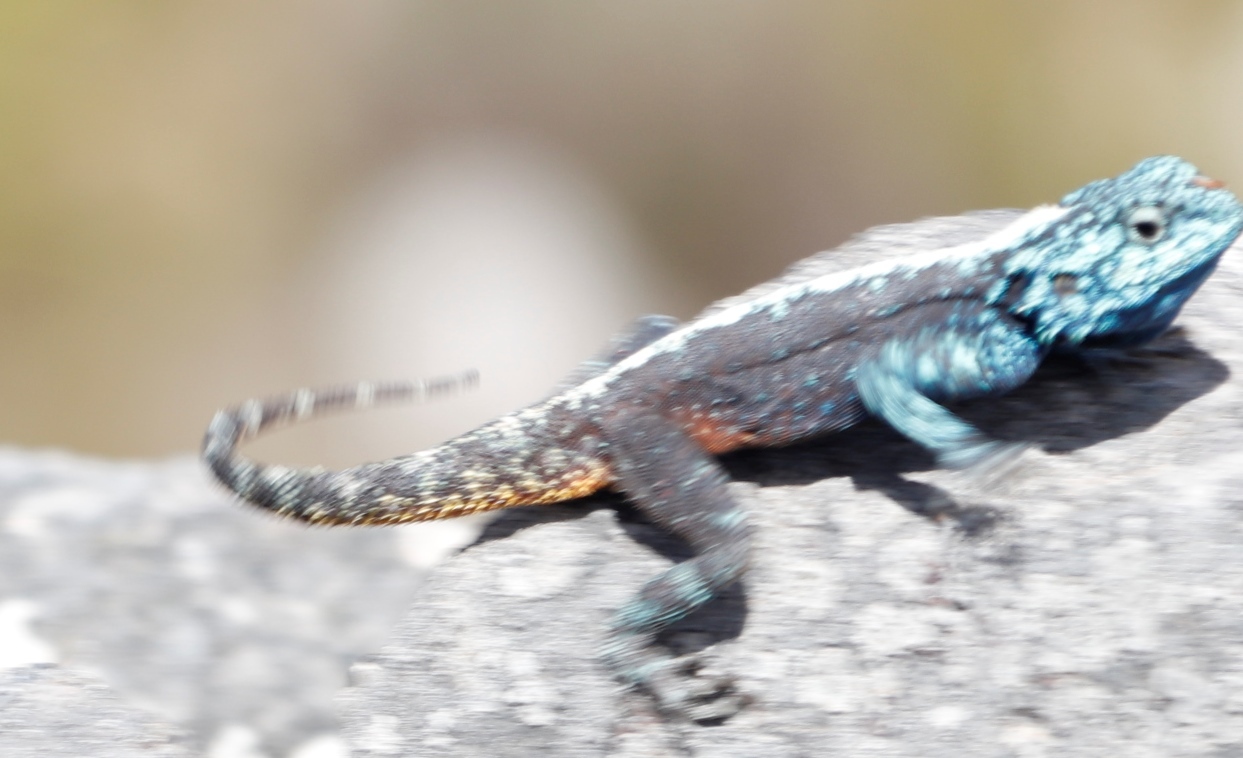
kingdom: Animalia
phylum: Chordata
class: Squamata
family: Agamidae
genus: Agama
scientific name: Agama atra
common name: Southern african rock agama
